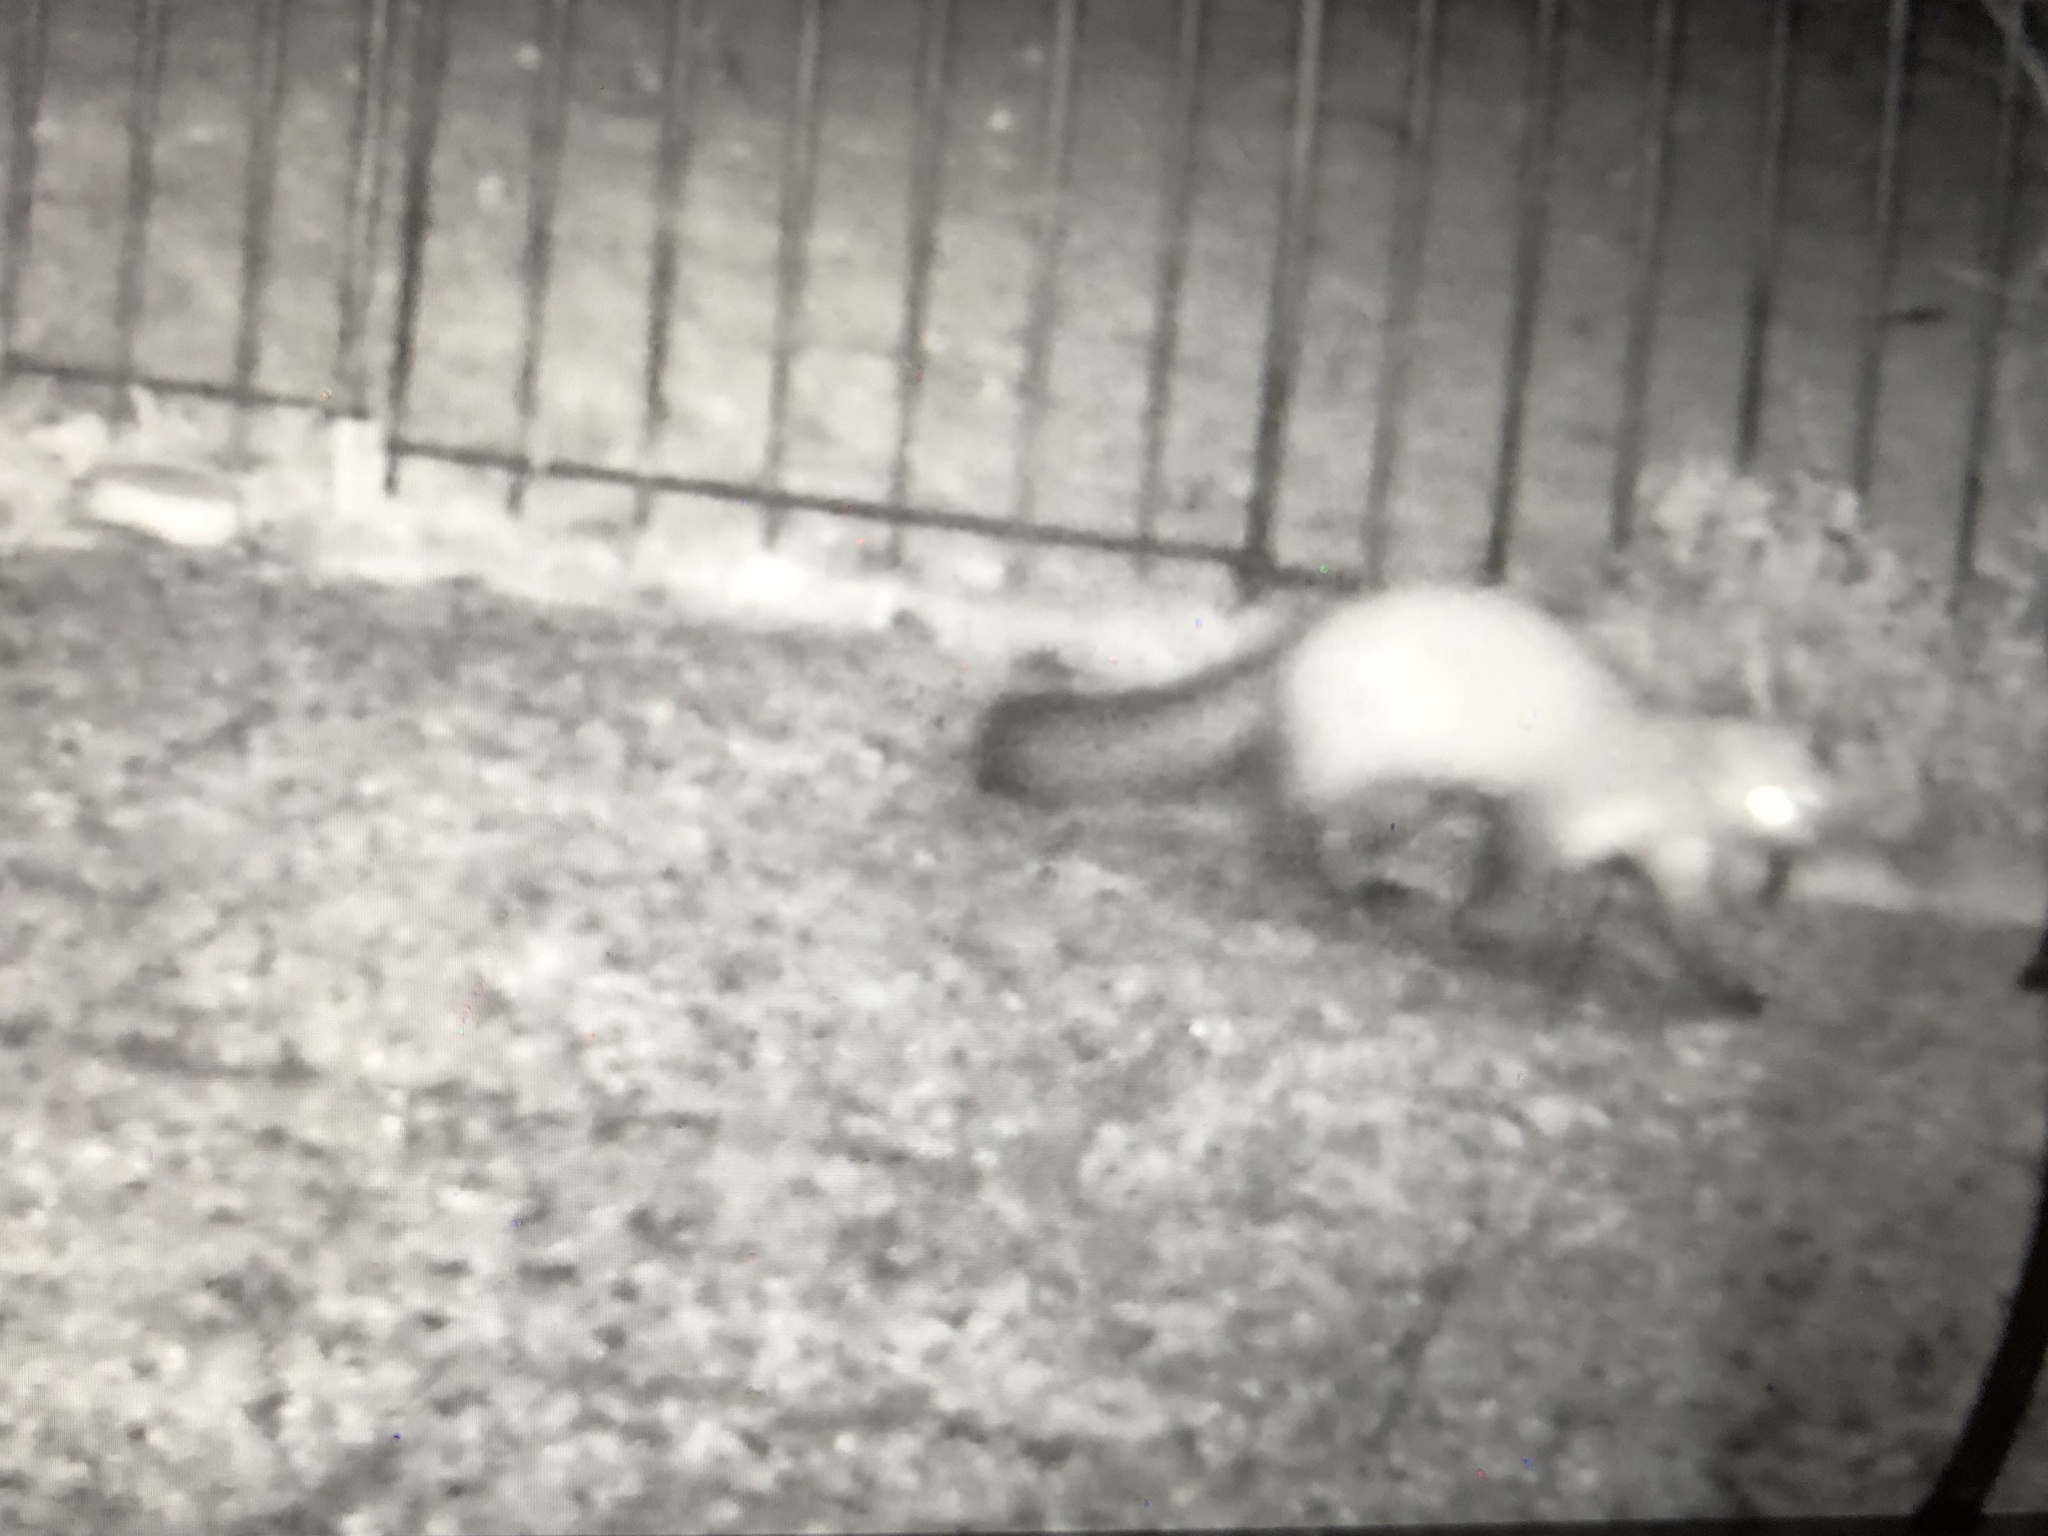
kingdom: Animalia
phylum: Chordata
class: Mammalia
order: Carnivora
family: Mustelidae
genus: Martes
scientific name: Martes foina
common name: Beech marten
